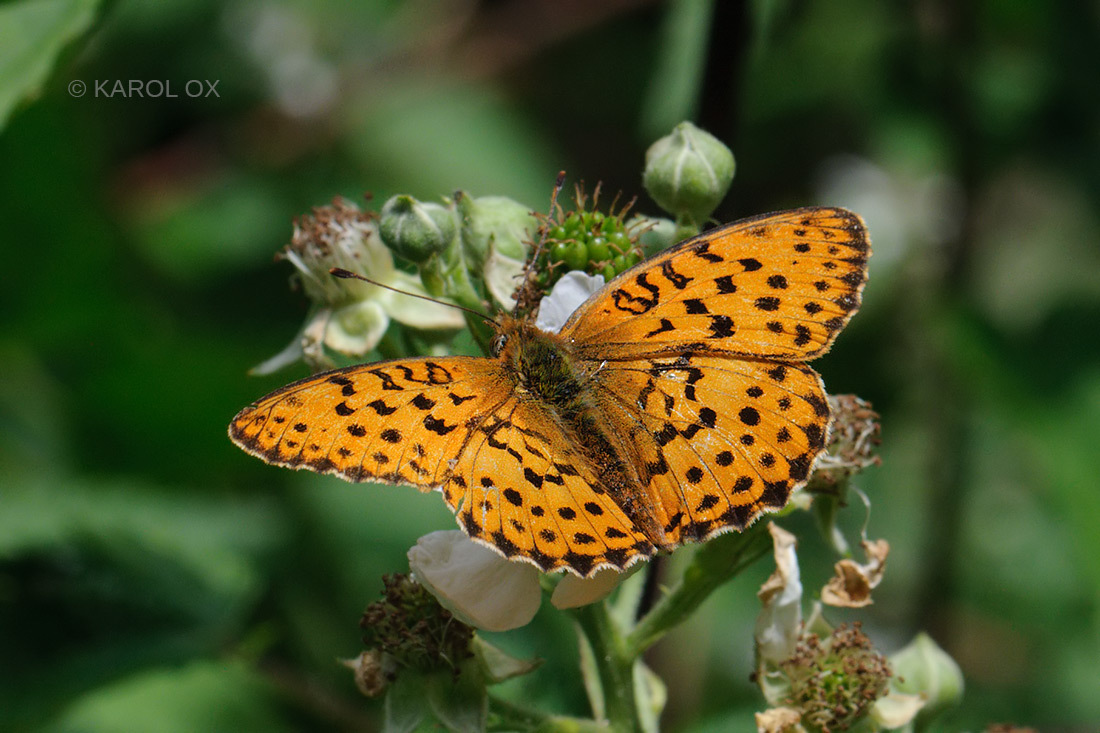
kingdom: Animalia
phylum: Arthropoda
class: Insecta
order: Lepidoptera
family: Nymphalidae
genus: Brenthis
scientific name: Brenthis daphne
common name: Marbled fritillary
